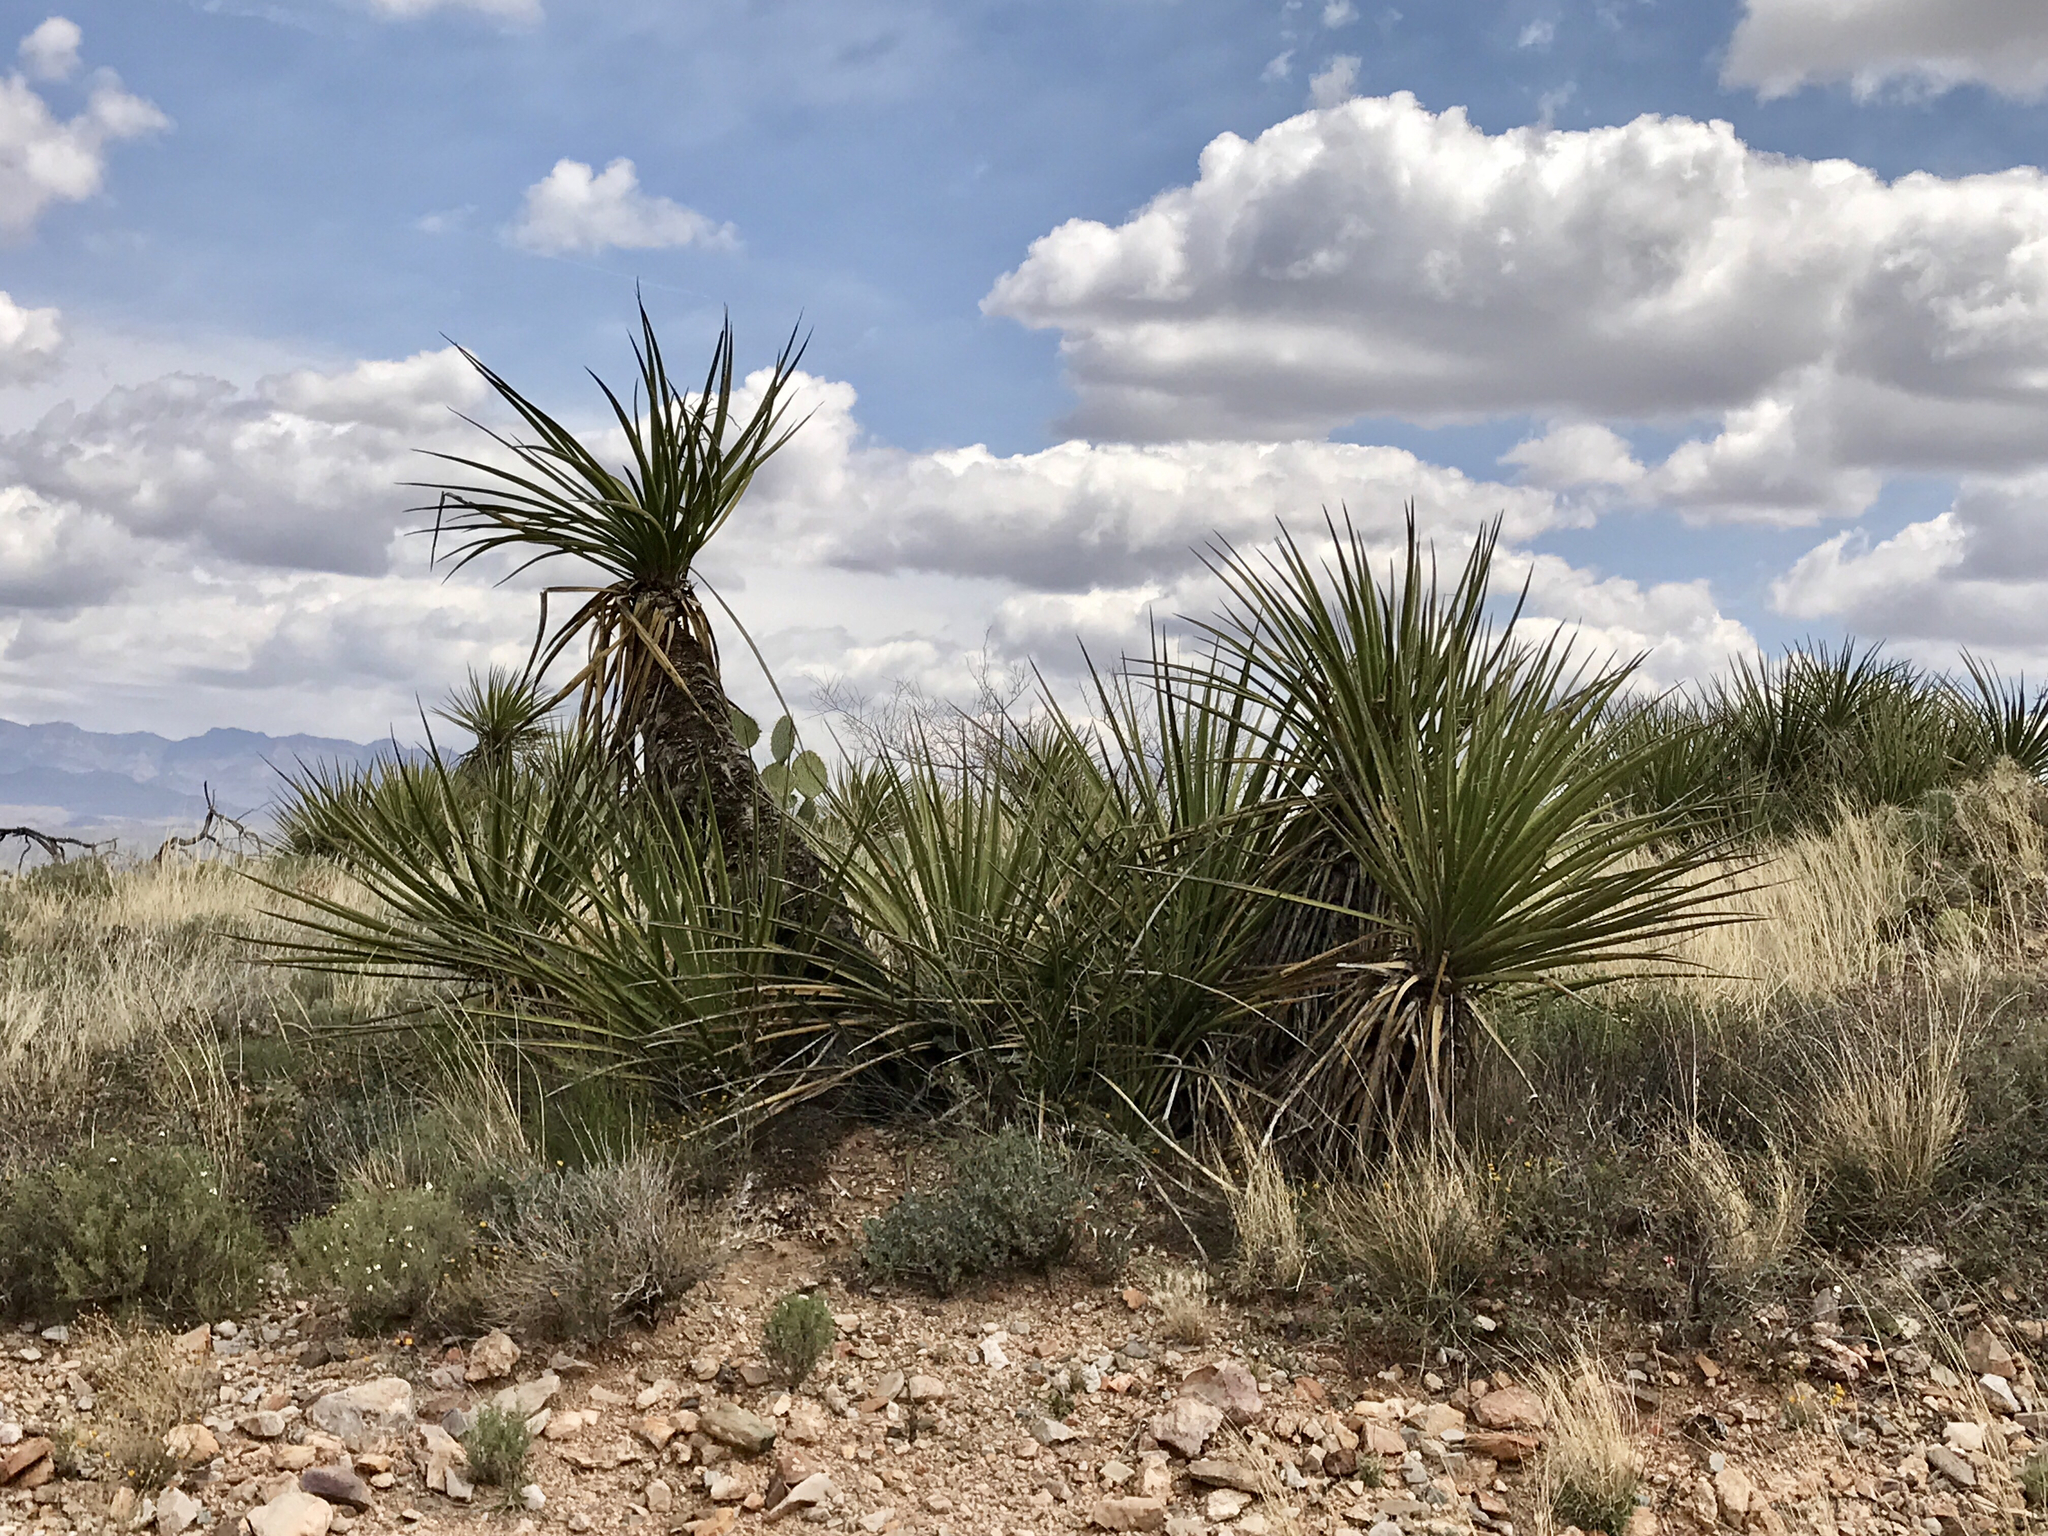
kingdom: Plantae
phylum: Tracheophyta
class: Liliopsida
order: Asparagales
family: Asparagaceae
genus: Yucca
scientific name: Yucca baccata
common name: Banana yucca
